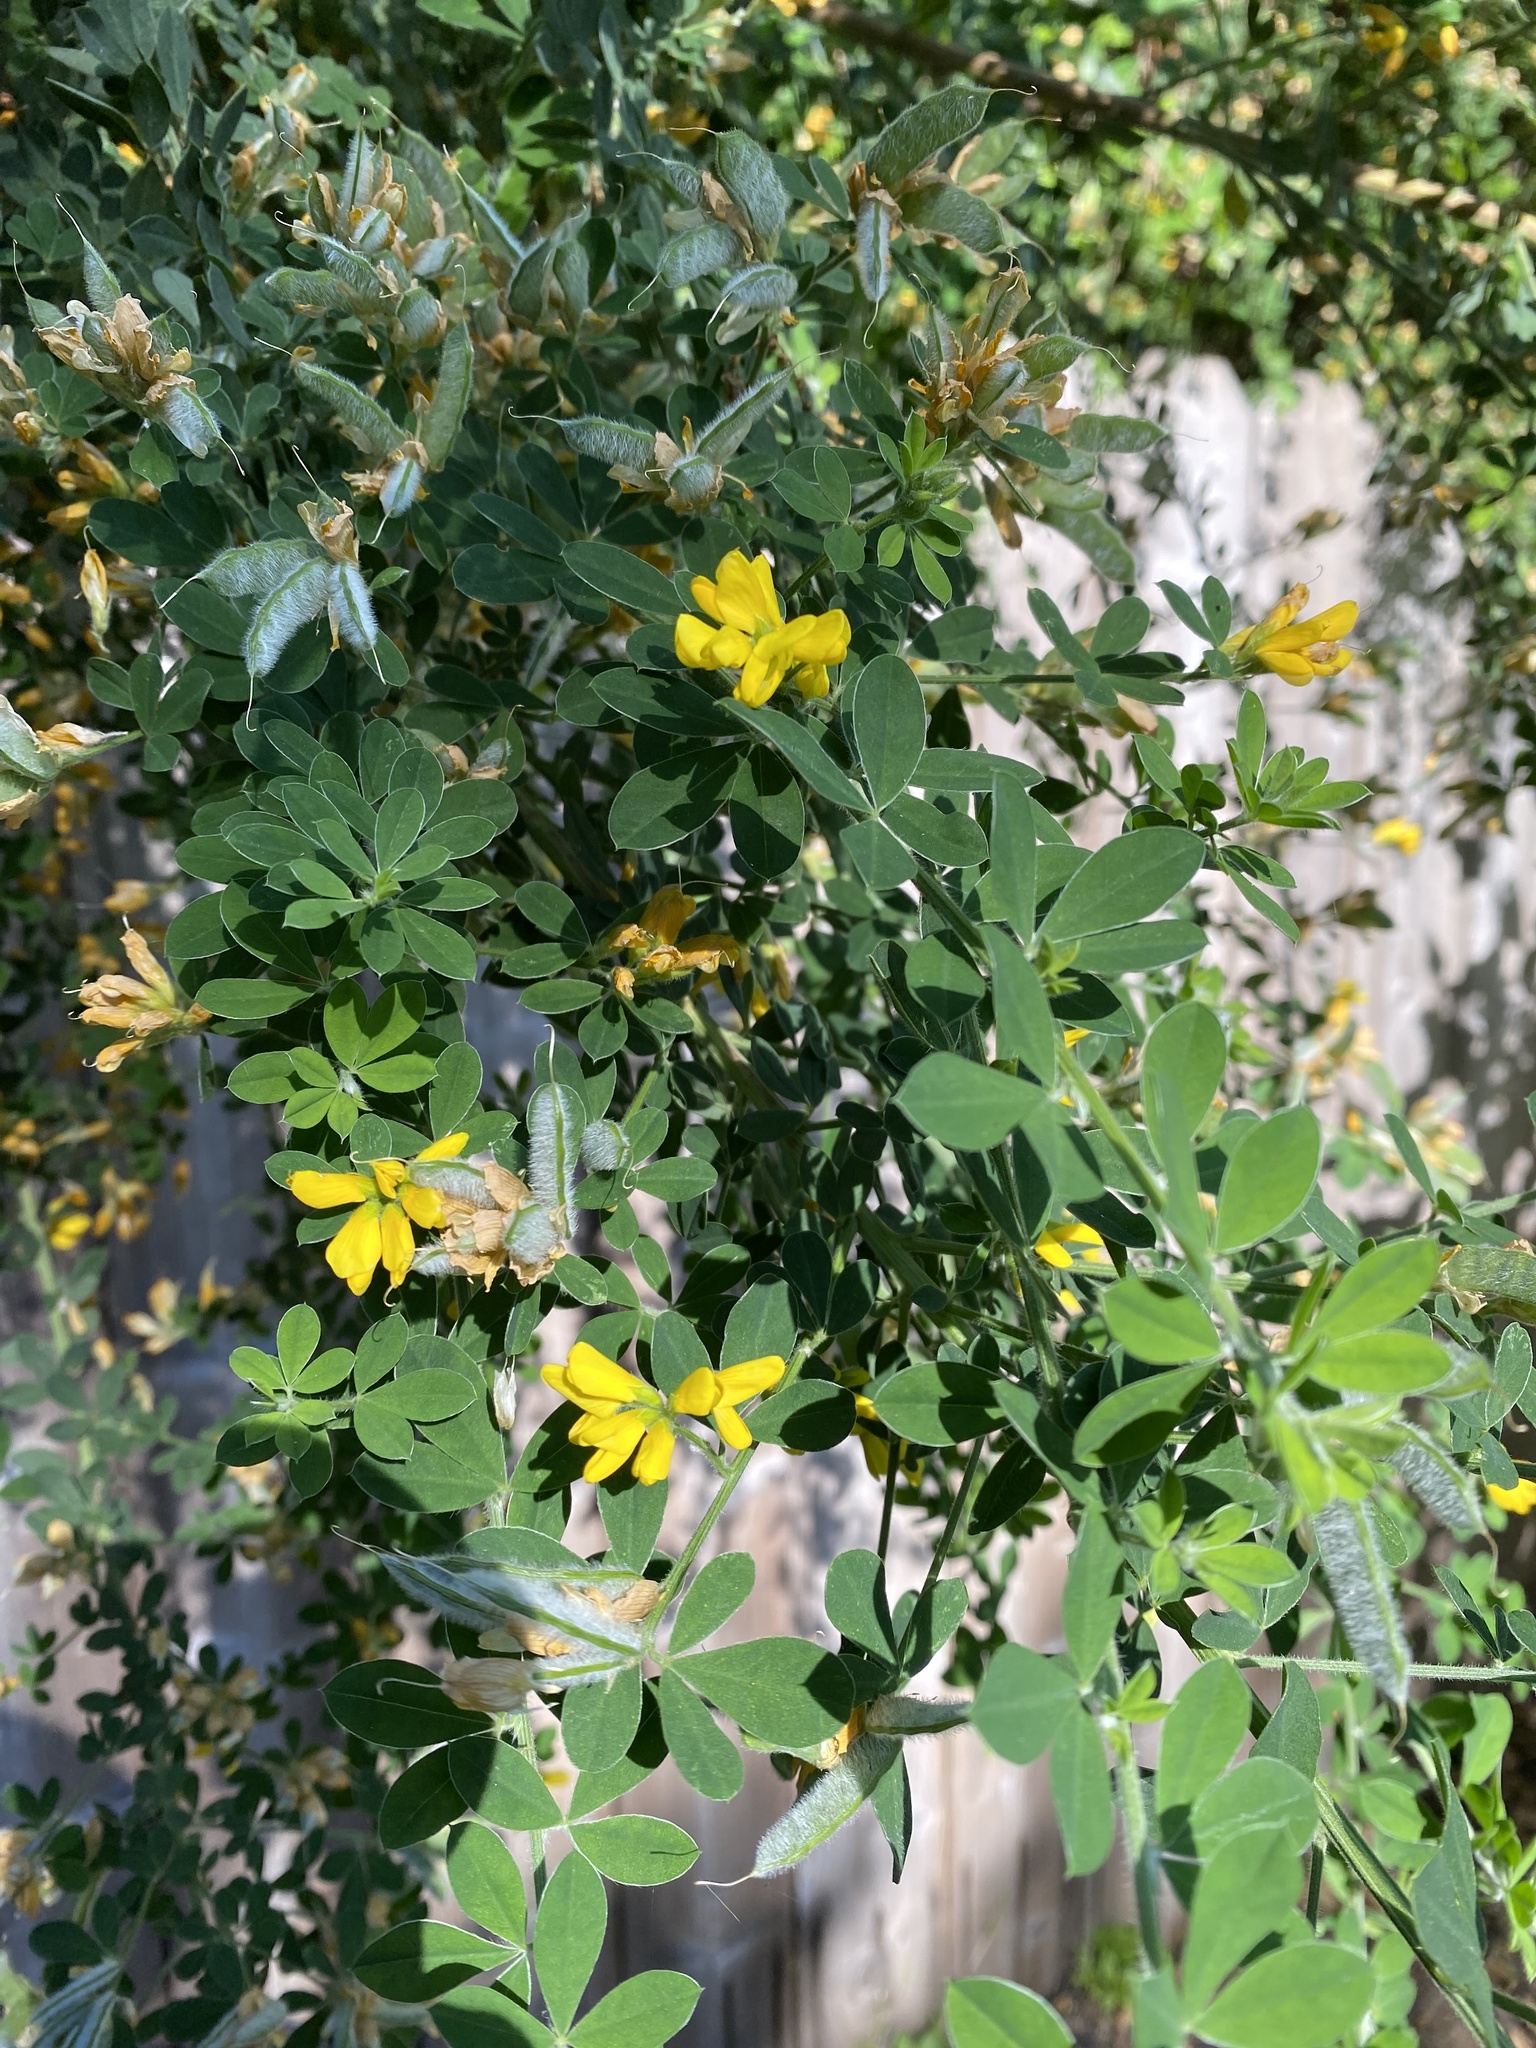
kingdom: Plantae
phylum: Tracheophyta
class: Magnoliopsida
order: Fabales
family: Fabaceae
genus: Genista
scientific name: Genista monspessulana
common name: Montpellier broom
